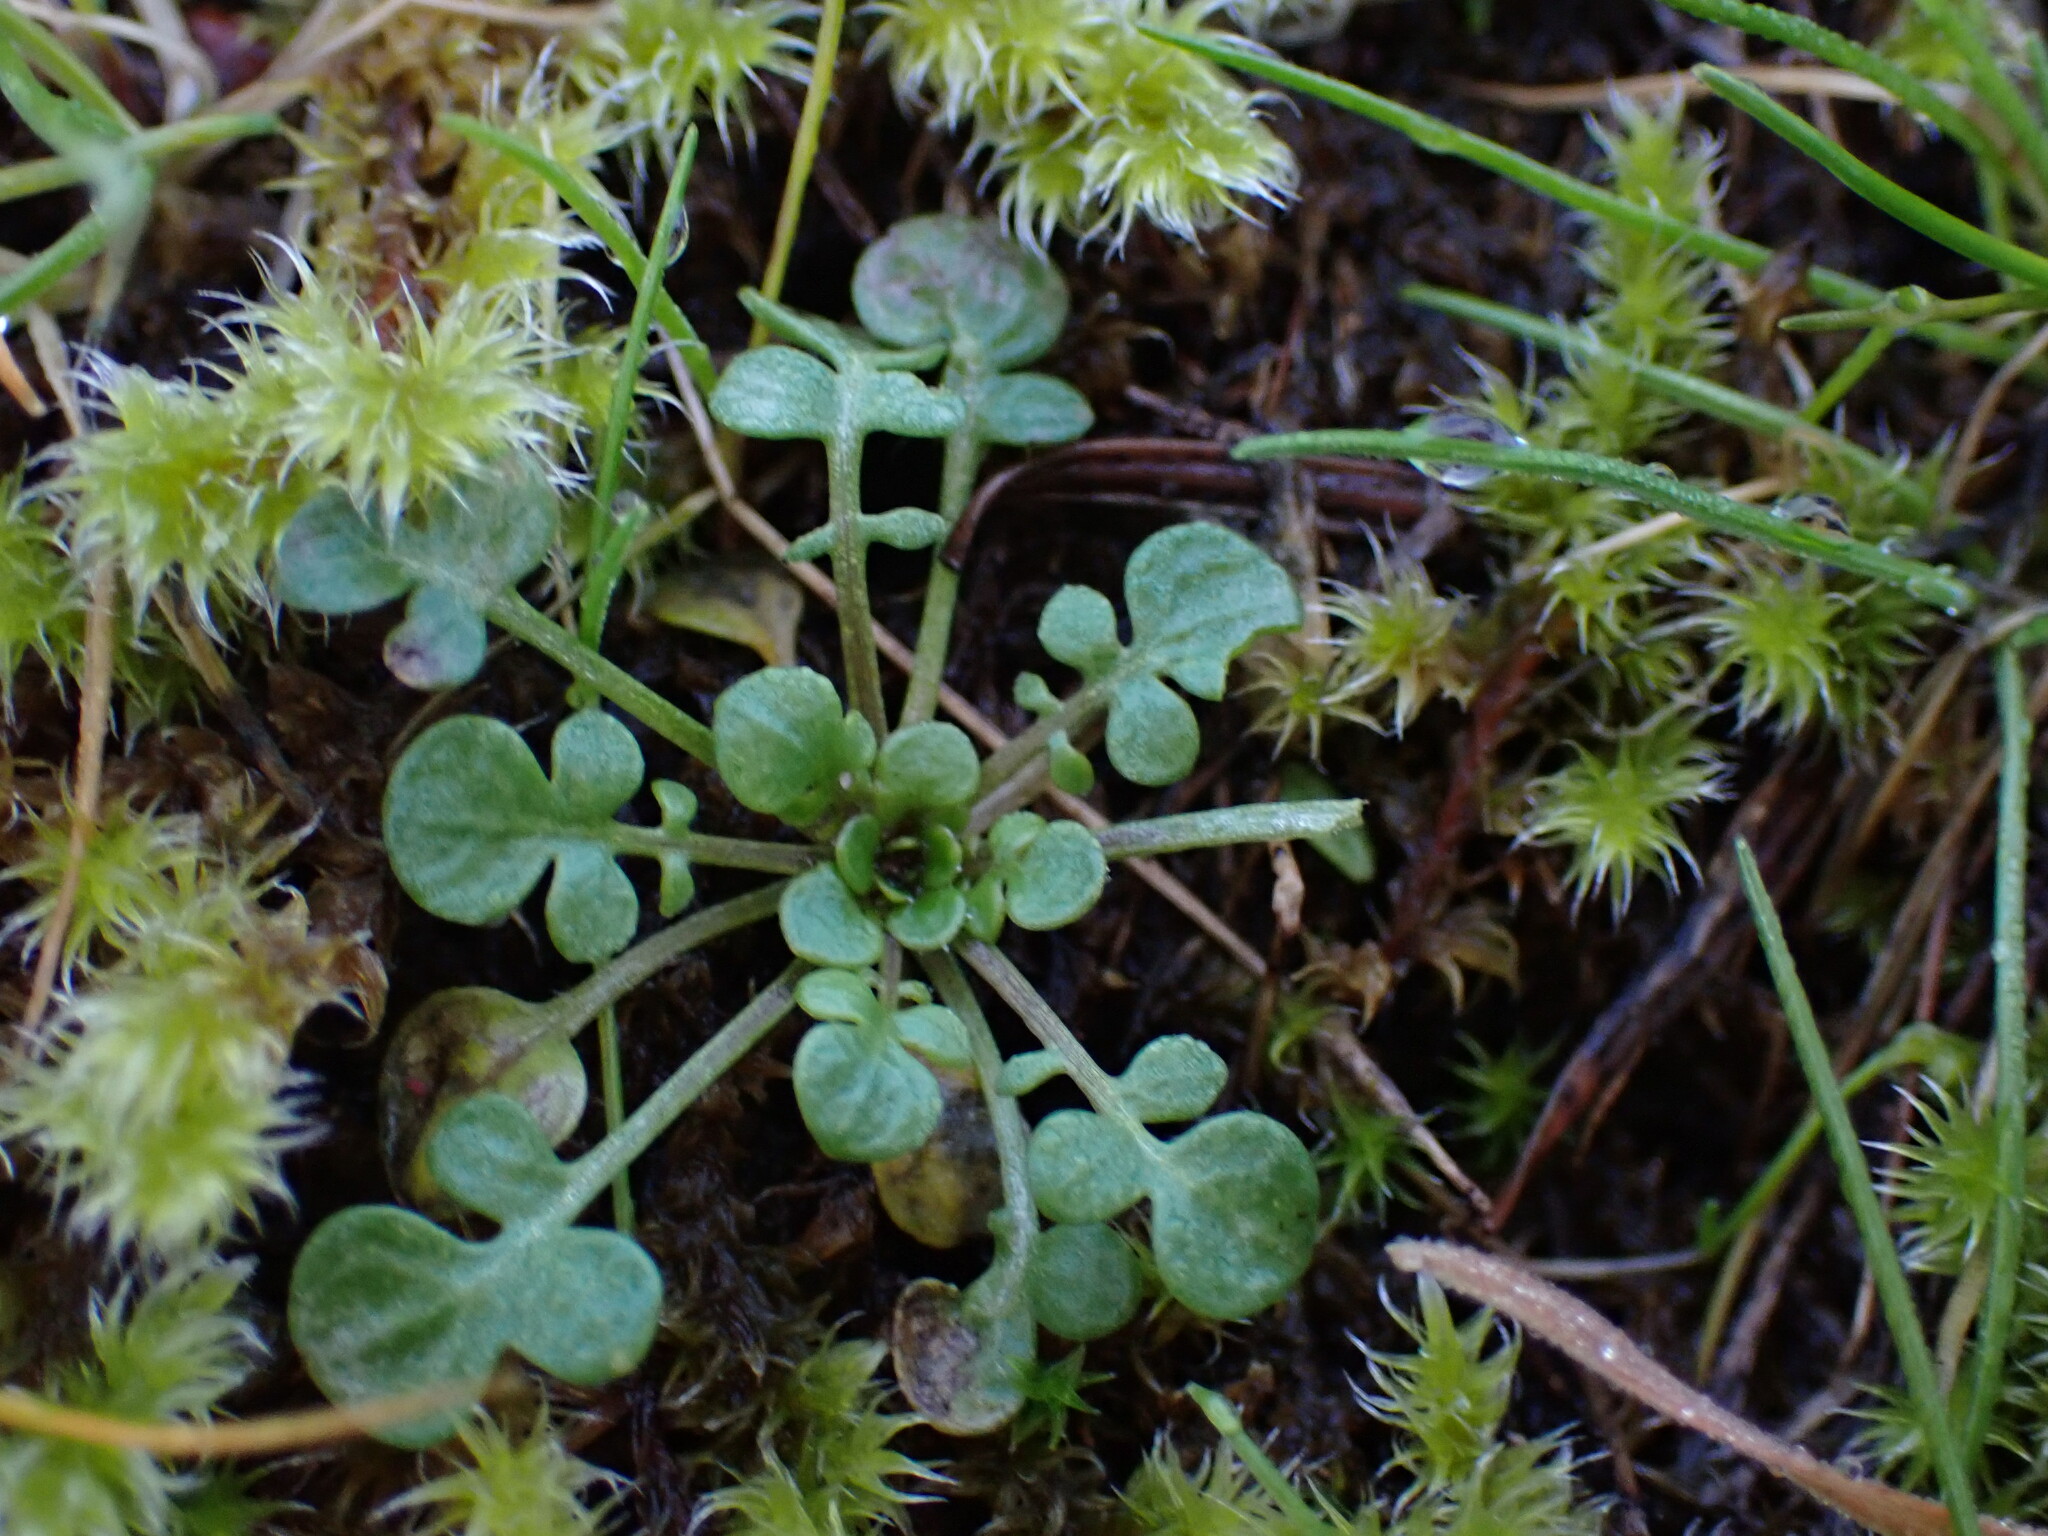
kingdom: Plantae
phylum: Tracheophyta
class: Magnoliopsida
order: Brassicales
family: Brassicaceae
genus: Teesdalia
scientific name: Teesdalia nudicaulis
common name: Shepherd's cress
